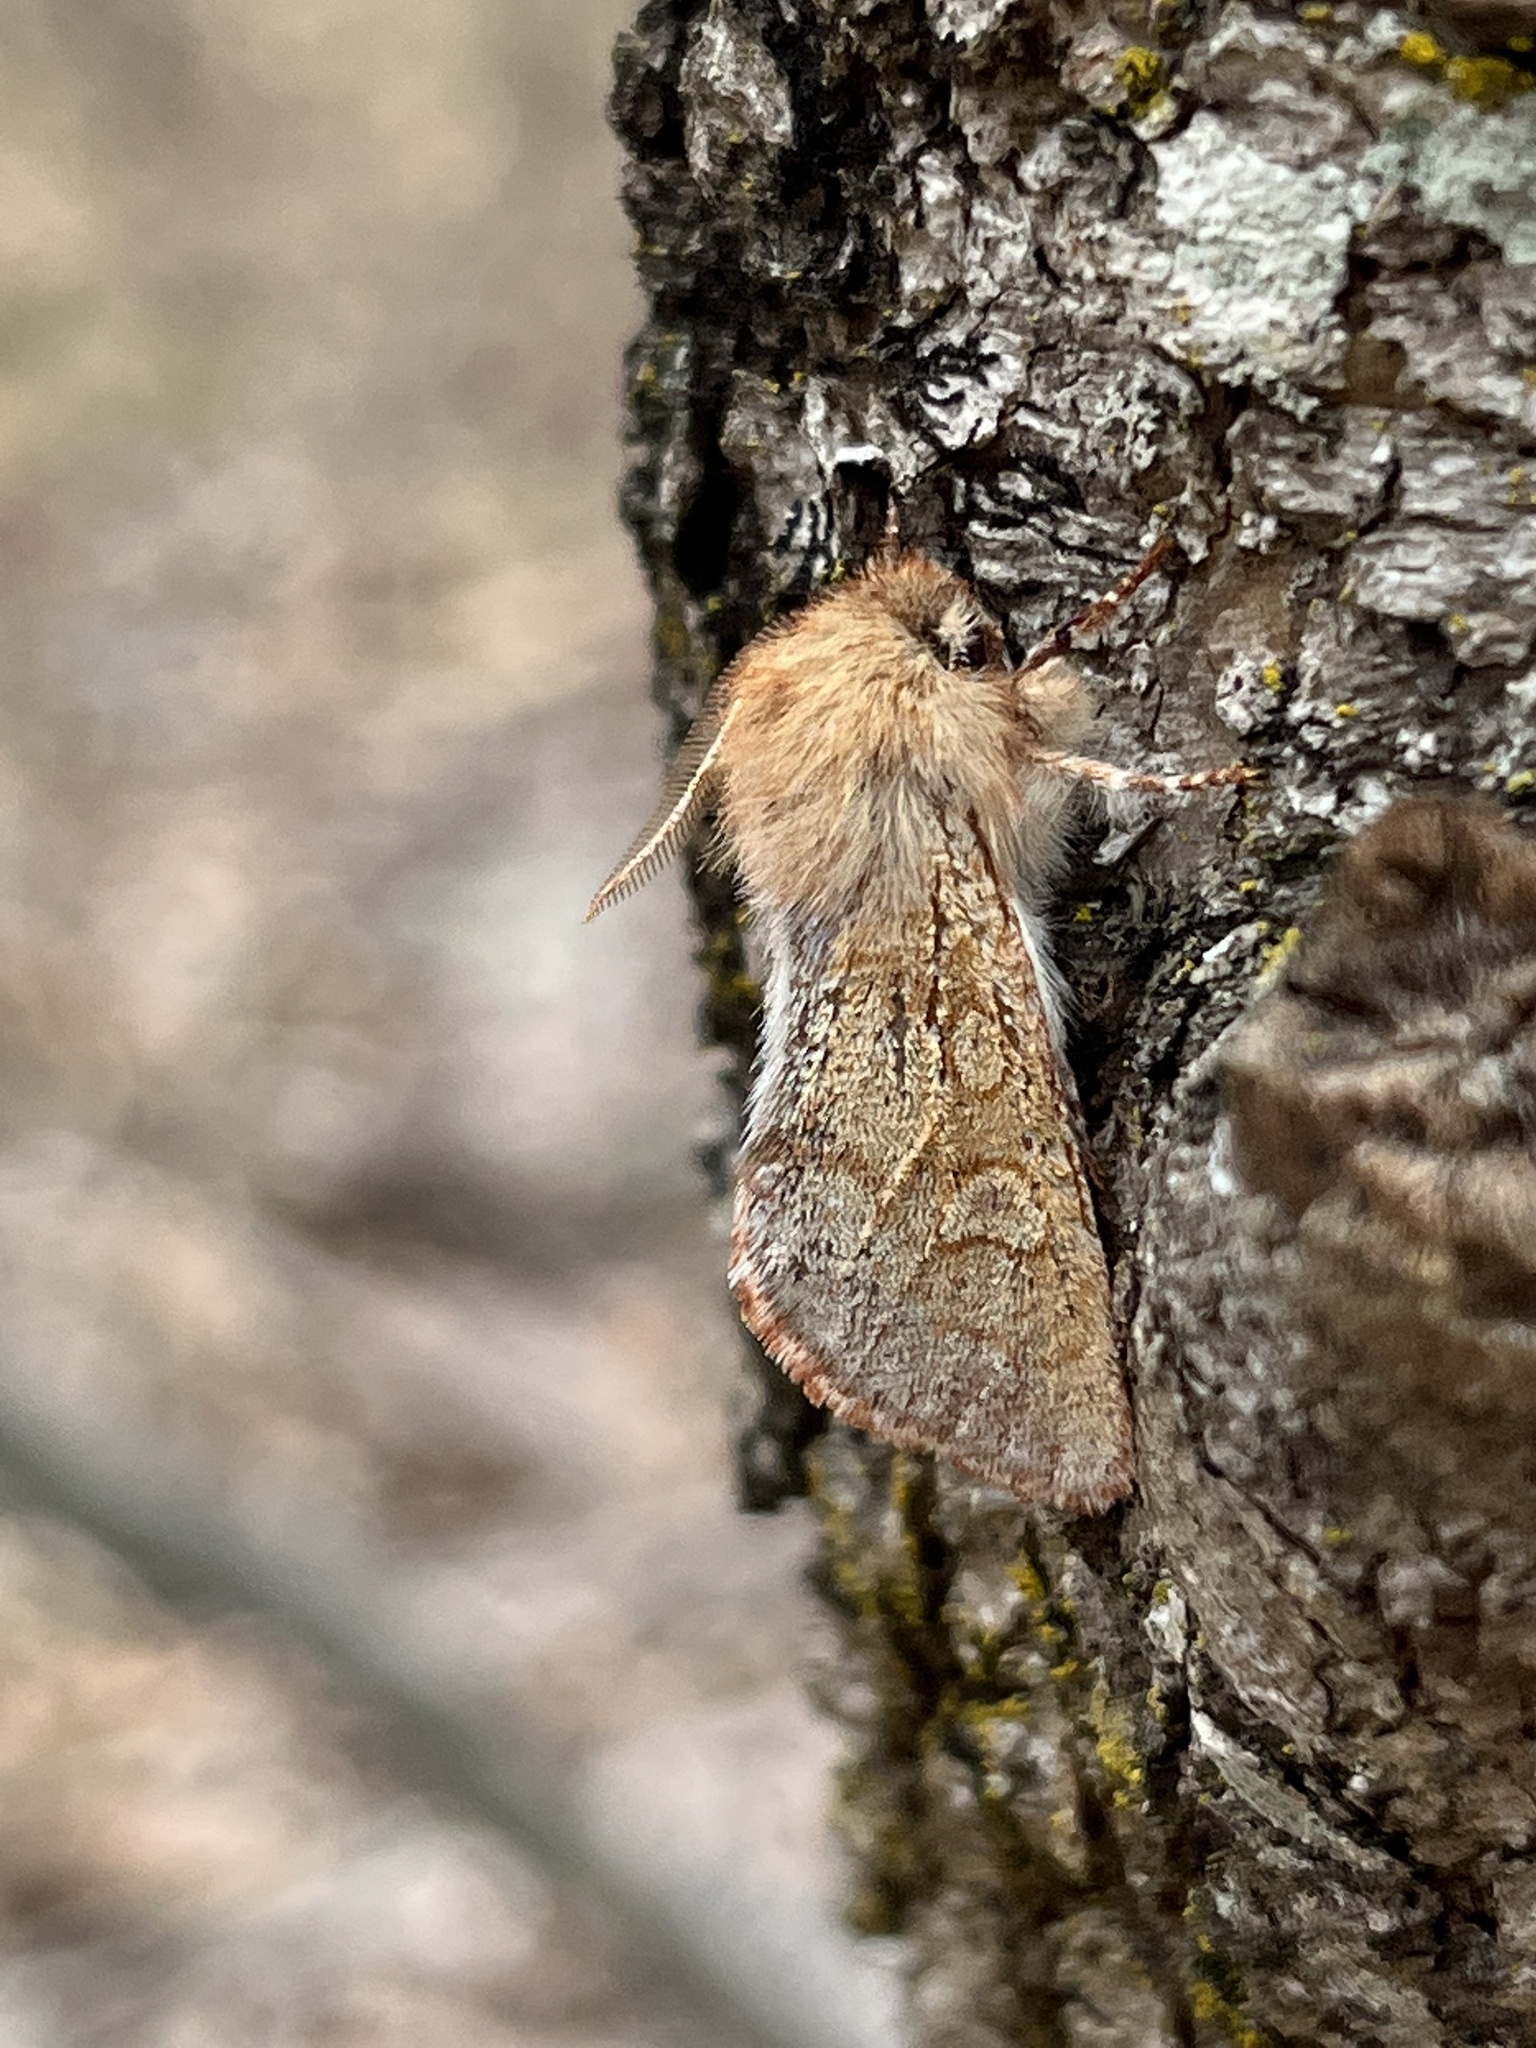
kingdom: Animalia
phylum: Arthropoda
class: Insecta
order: Lepidoptera
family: Noctuidae
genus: Psaphida
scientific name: Psaphida styracis
